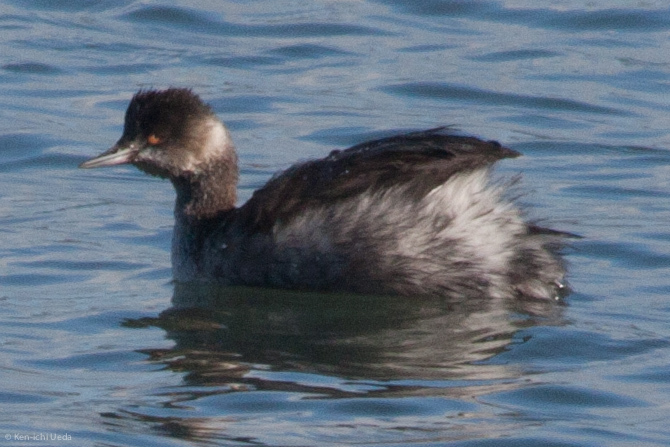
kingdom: Animalia
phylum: Chordata
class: Aves
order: Podicipediformes
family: Podicipedidae
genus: Podiceps
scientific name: Podiceps nigricollis
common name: Black-necked grebe
